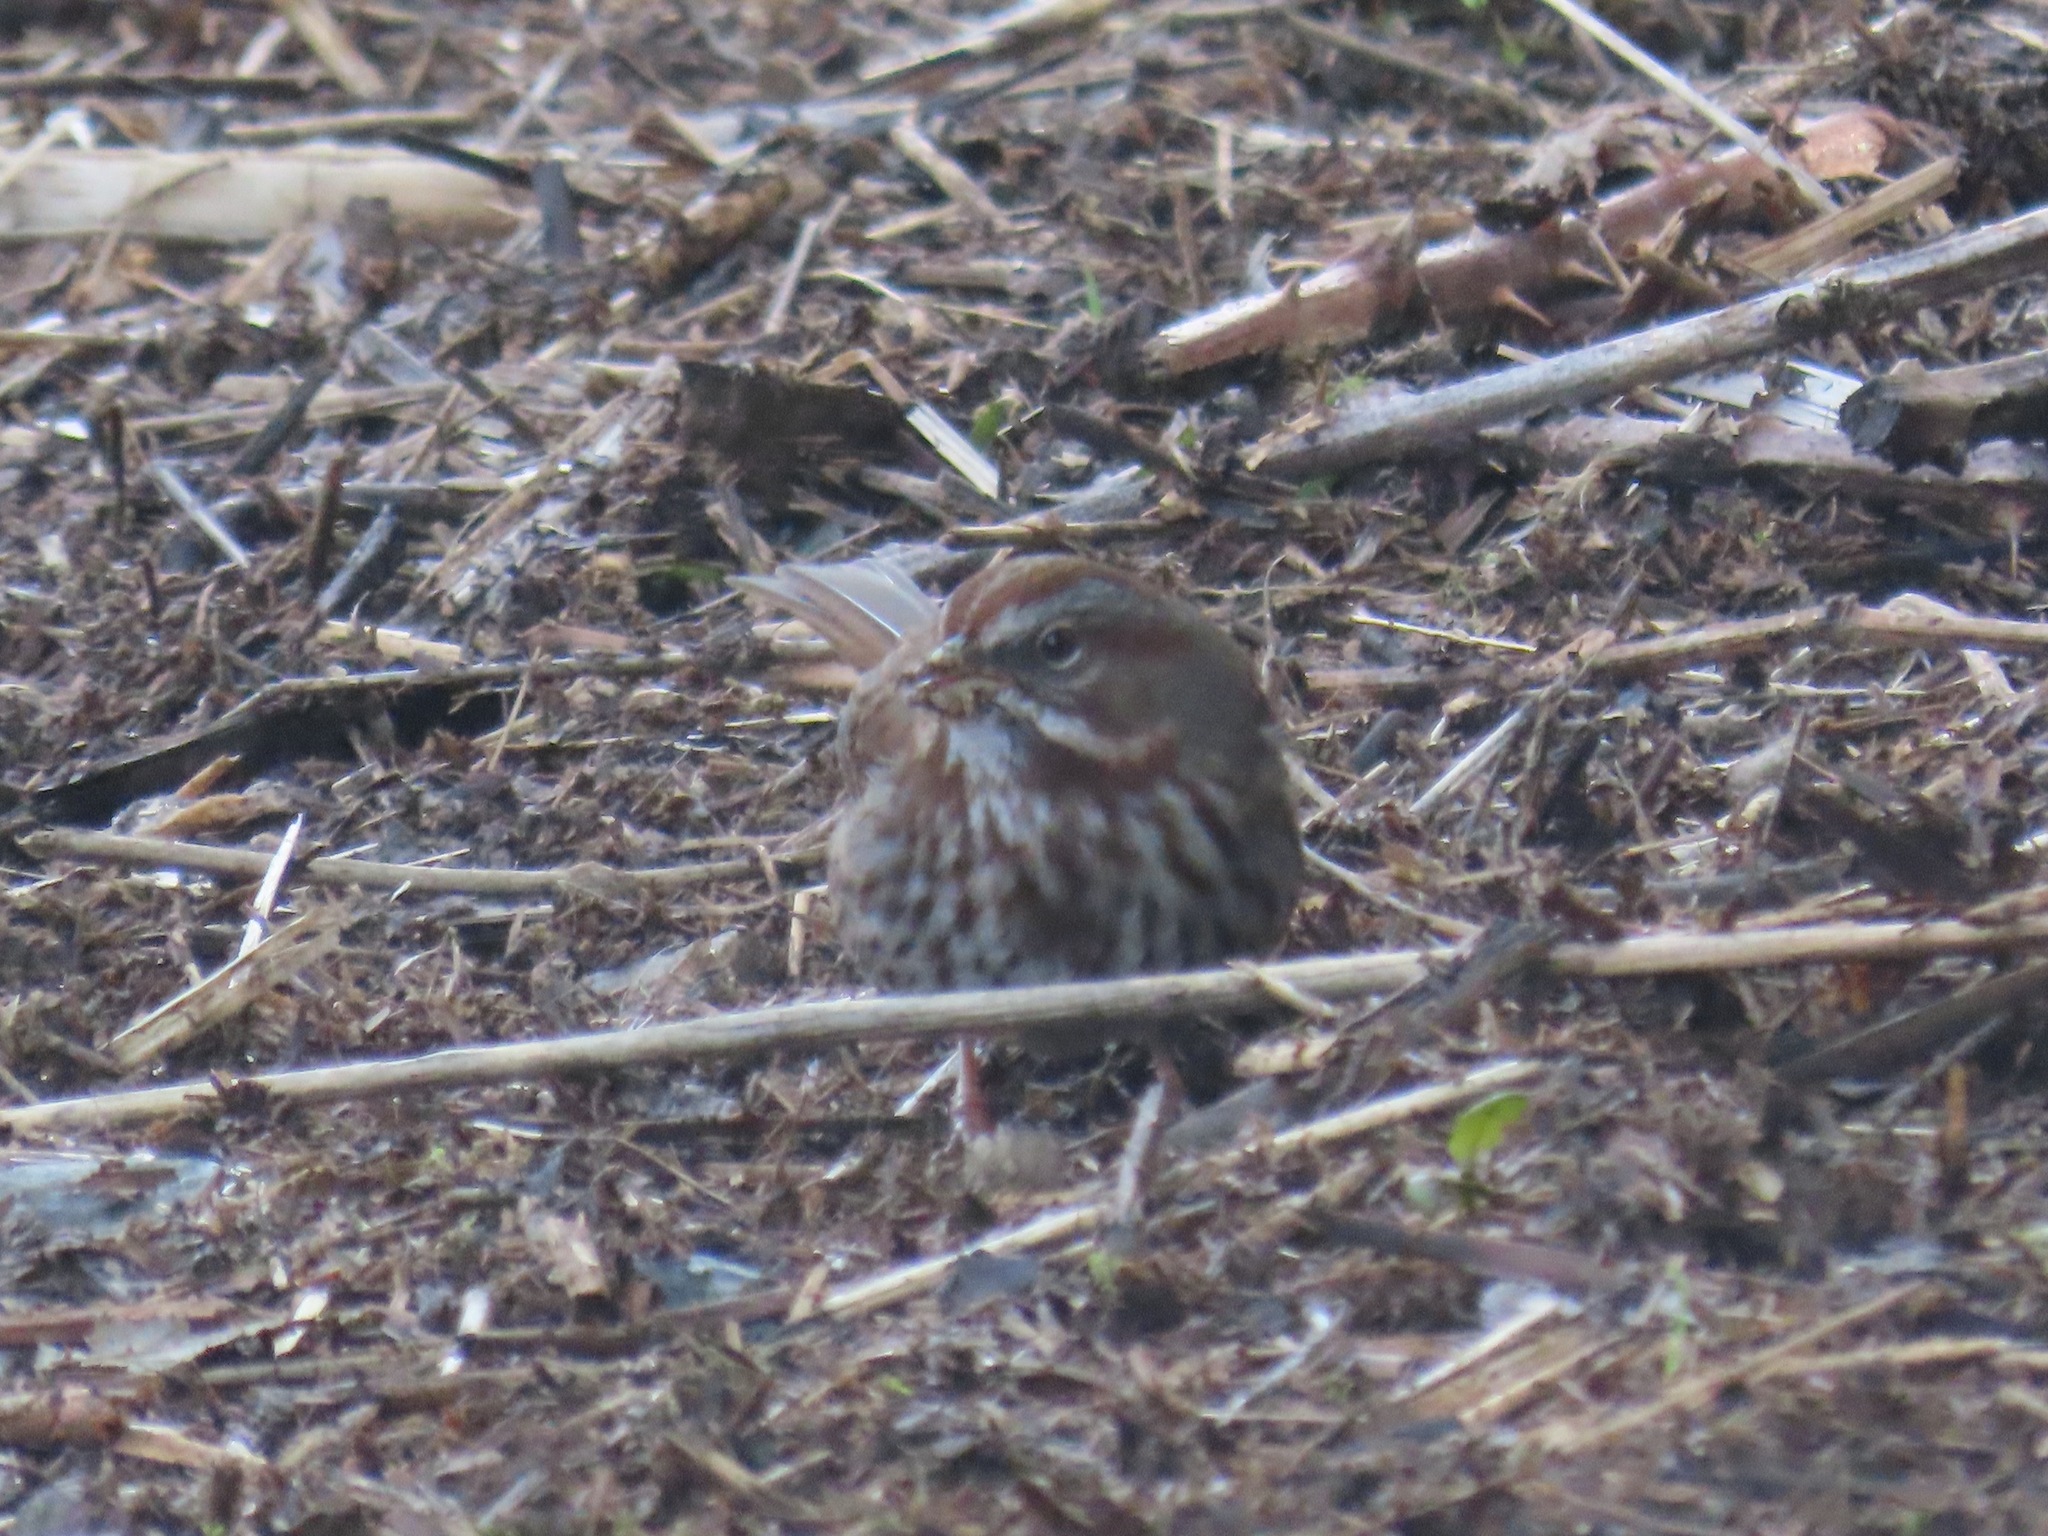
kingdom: Animalia
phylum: Chordata
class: Aves
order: Passeriformes
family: Passerellidae
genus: Melospiza
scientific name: Melospiza melodia
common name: Song sparrow
